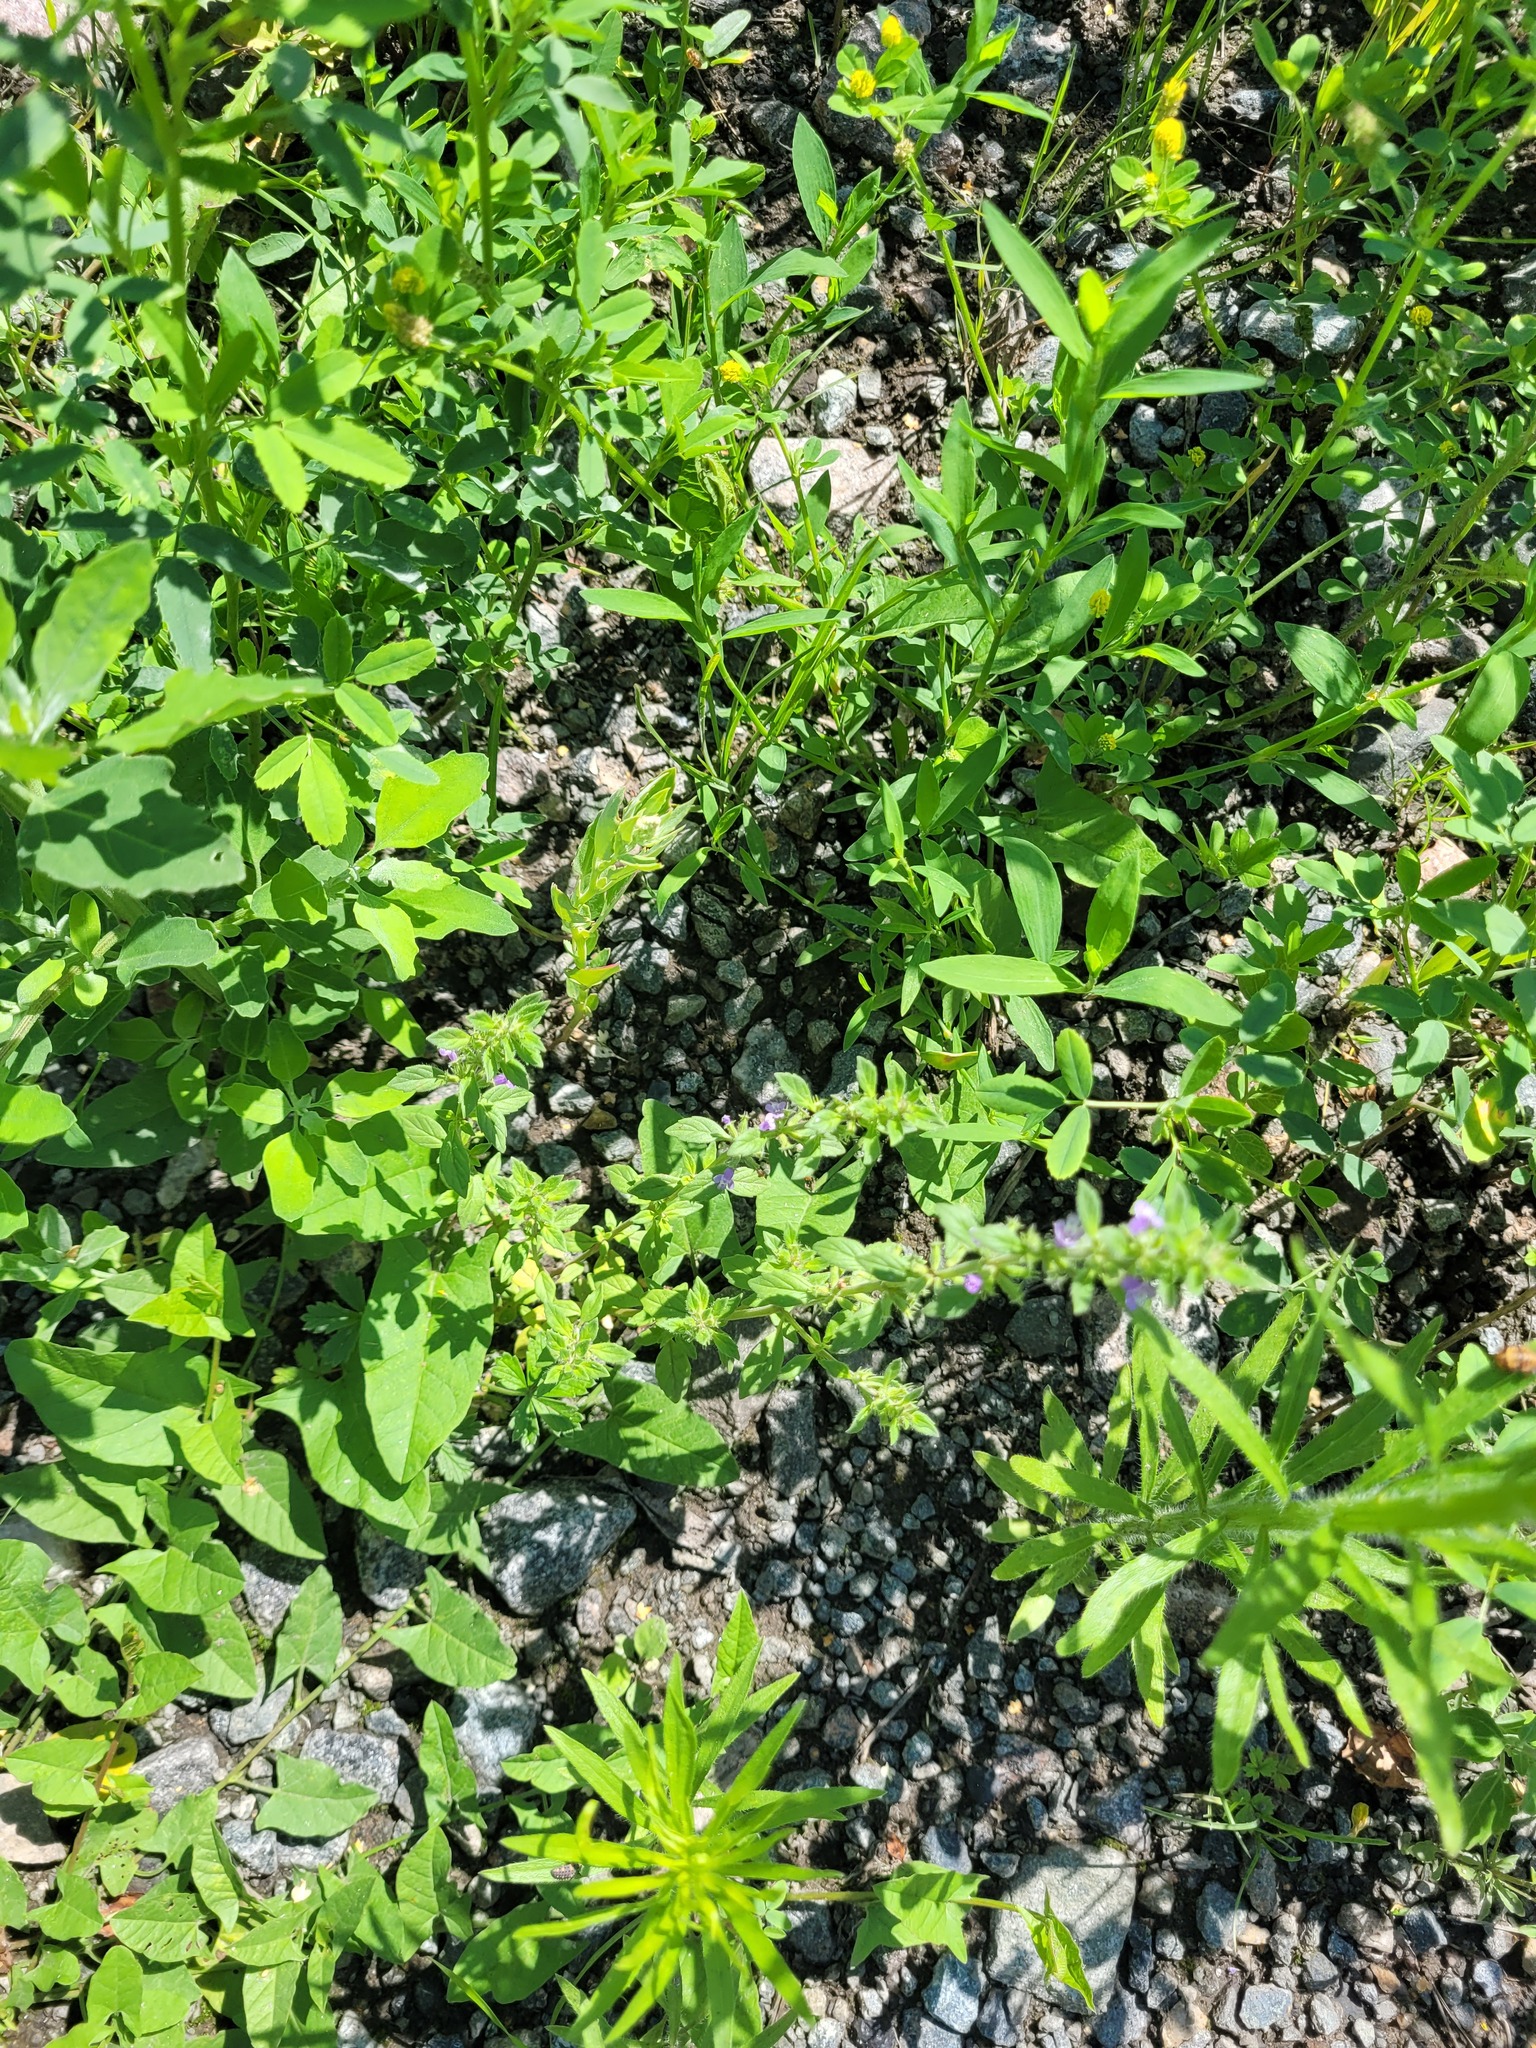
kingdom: Plantae
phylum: Tracheophyta
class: Magnoliopsida
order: Lamiales
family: Lamiaceae
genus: Clinopodium
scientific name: Clinopodium acinos
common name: Basil thyme
